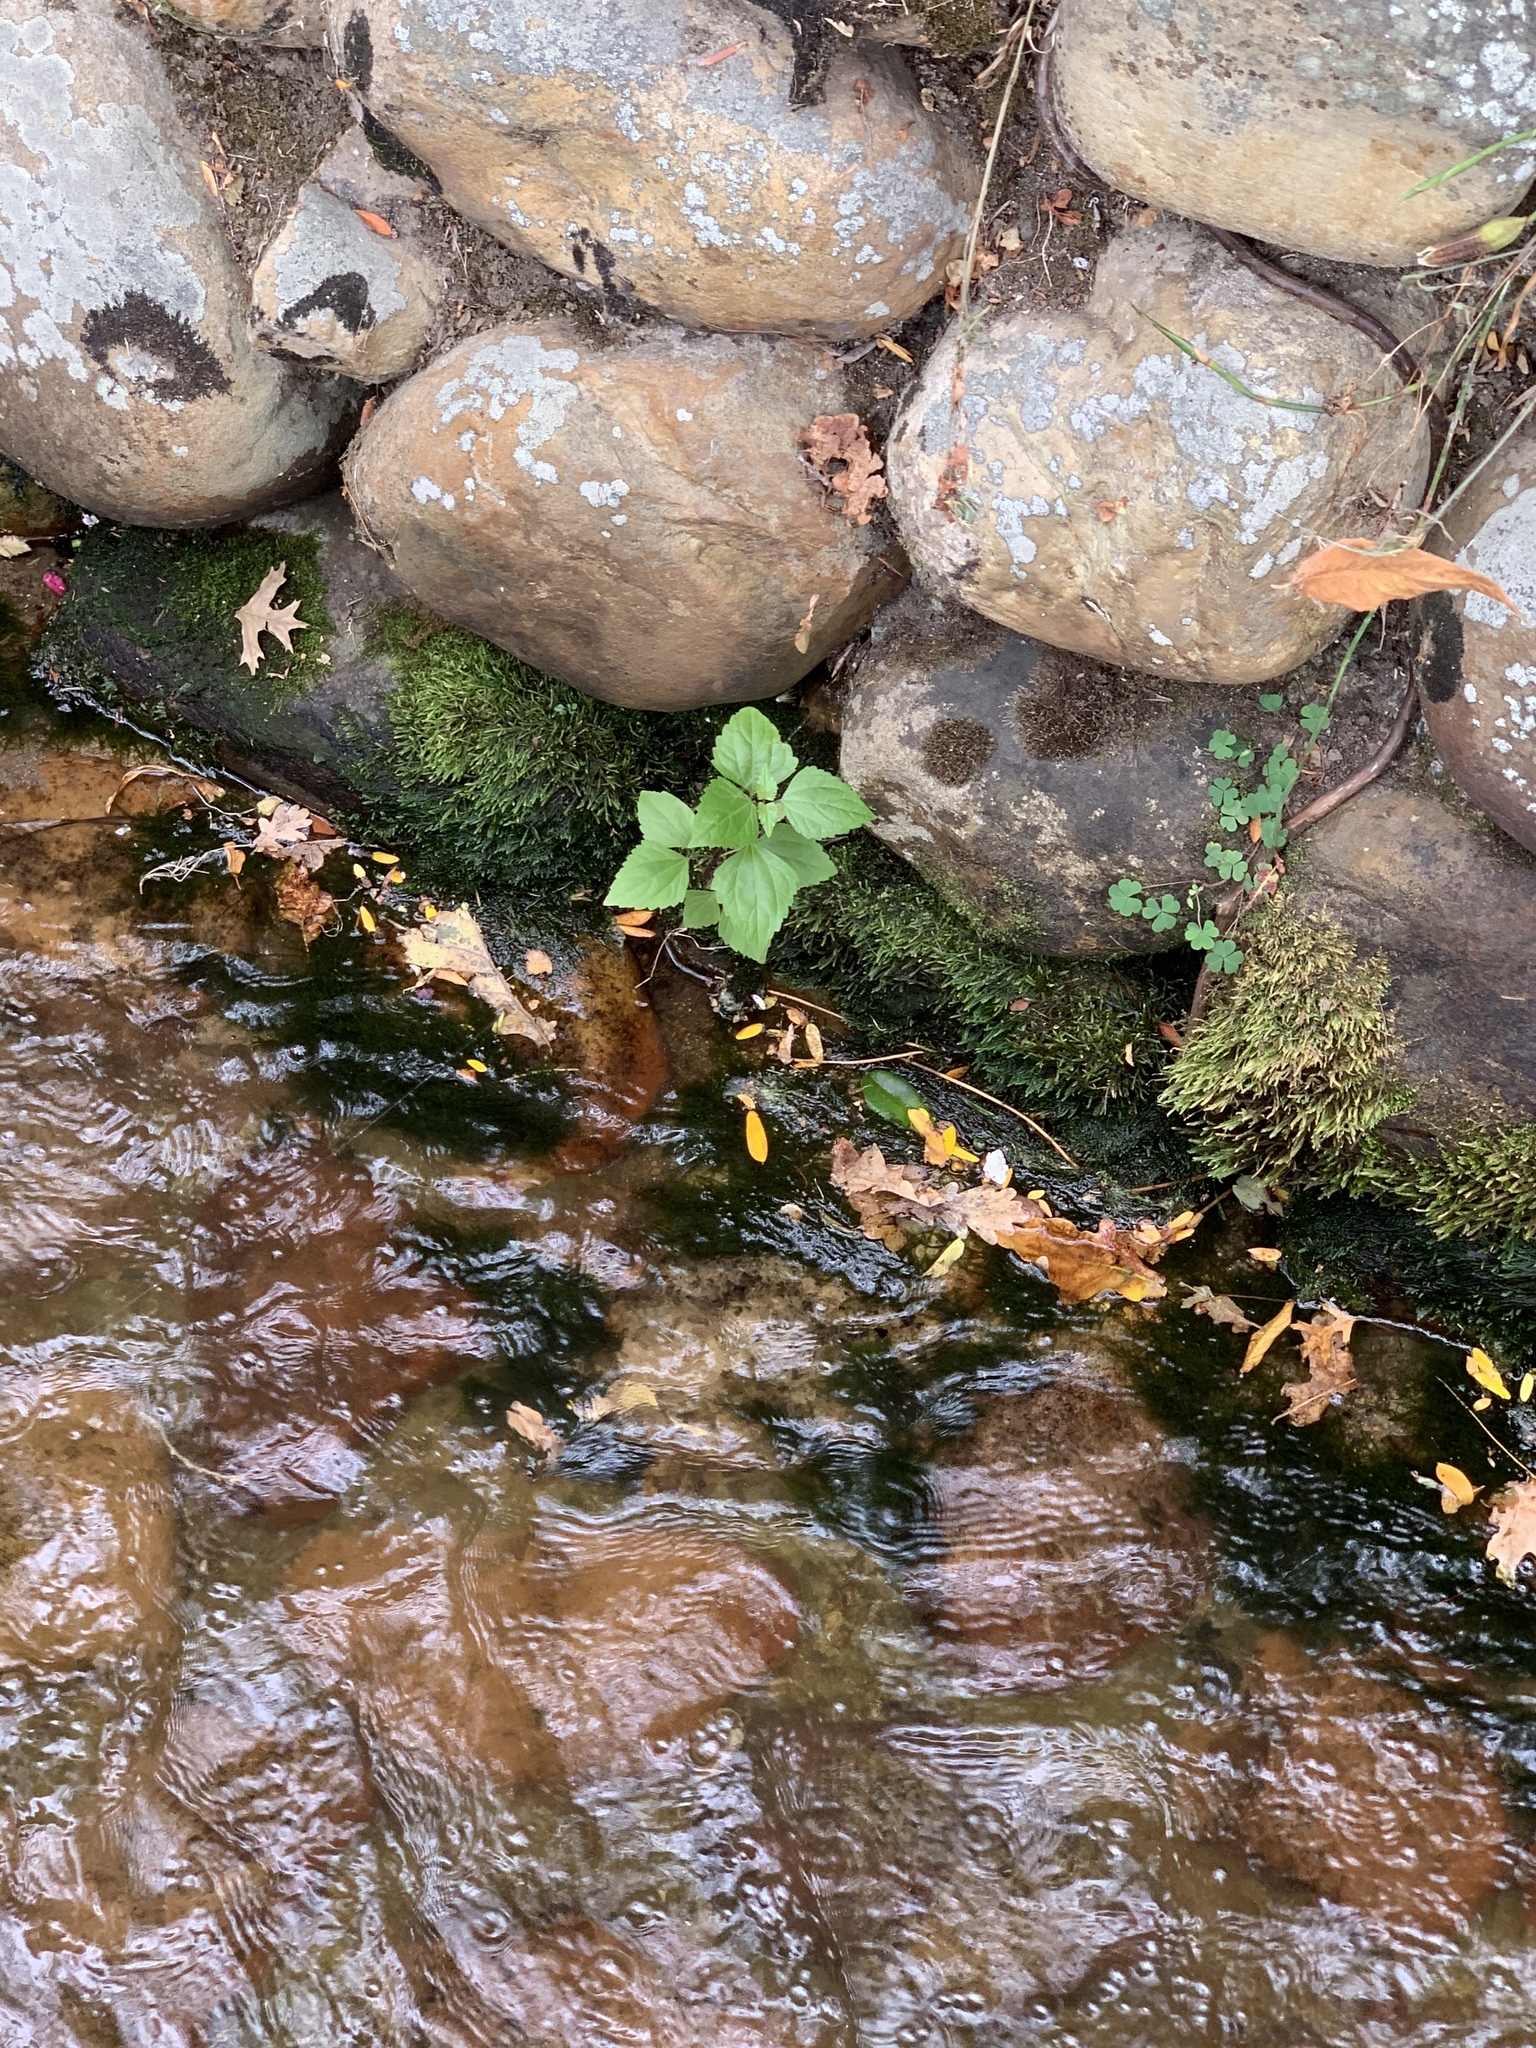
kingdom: Plantae
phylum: Tracheophyta
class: Magnoliopsida
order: Asterales
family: Asteraceae
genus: Ageratina
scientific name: Ageratina adenophora
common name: Sticky snakeroot
